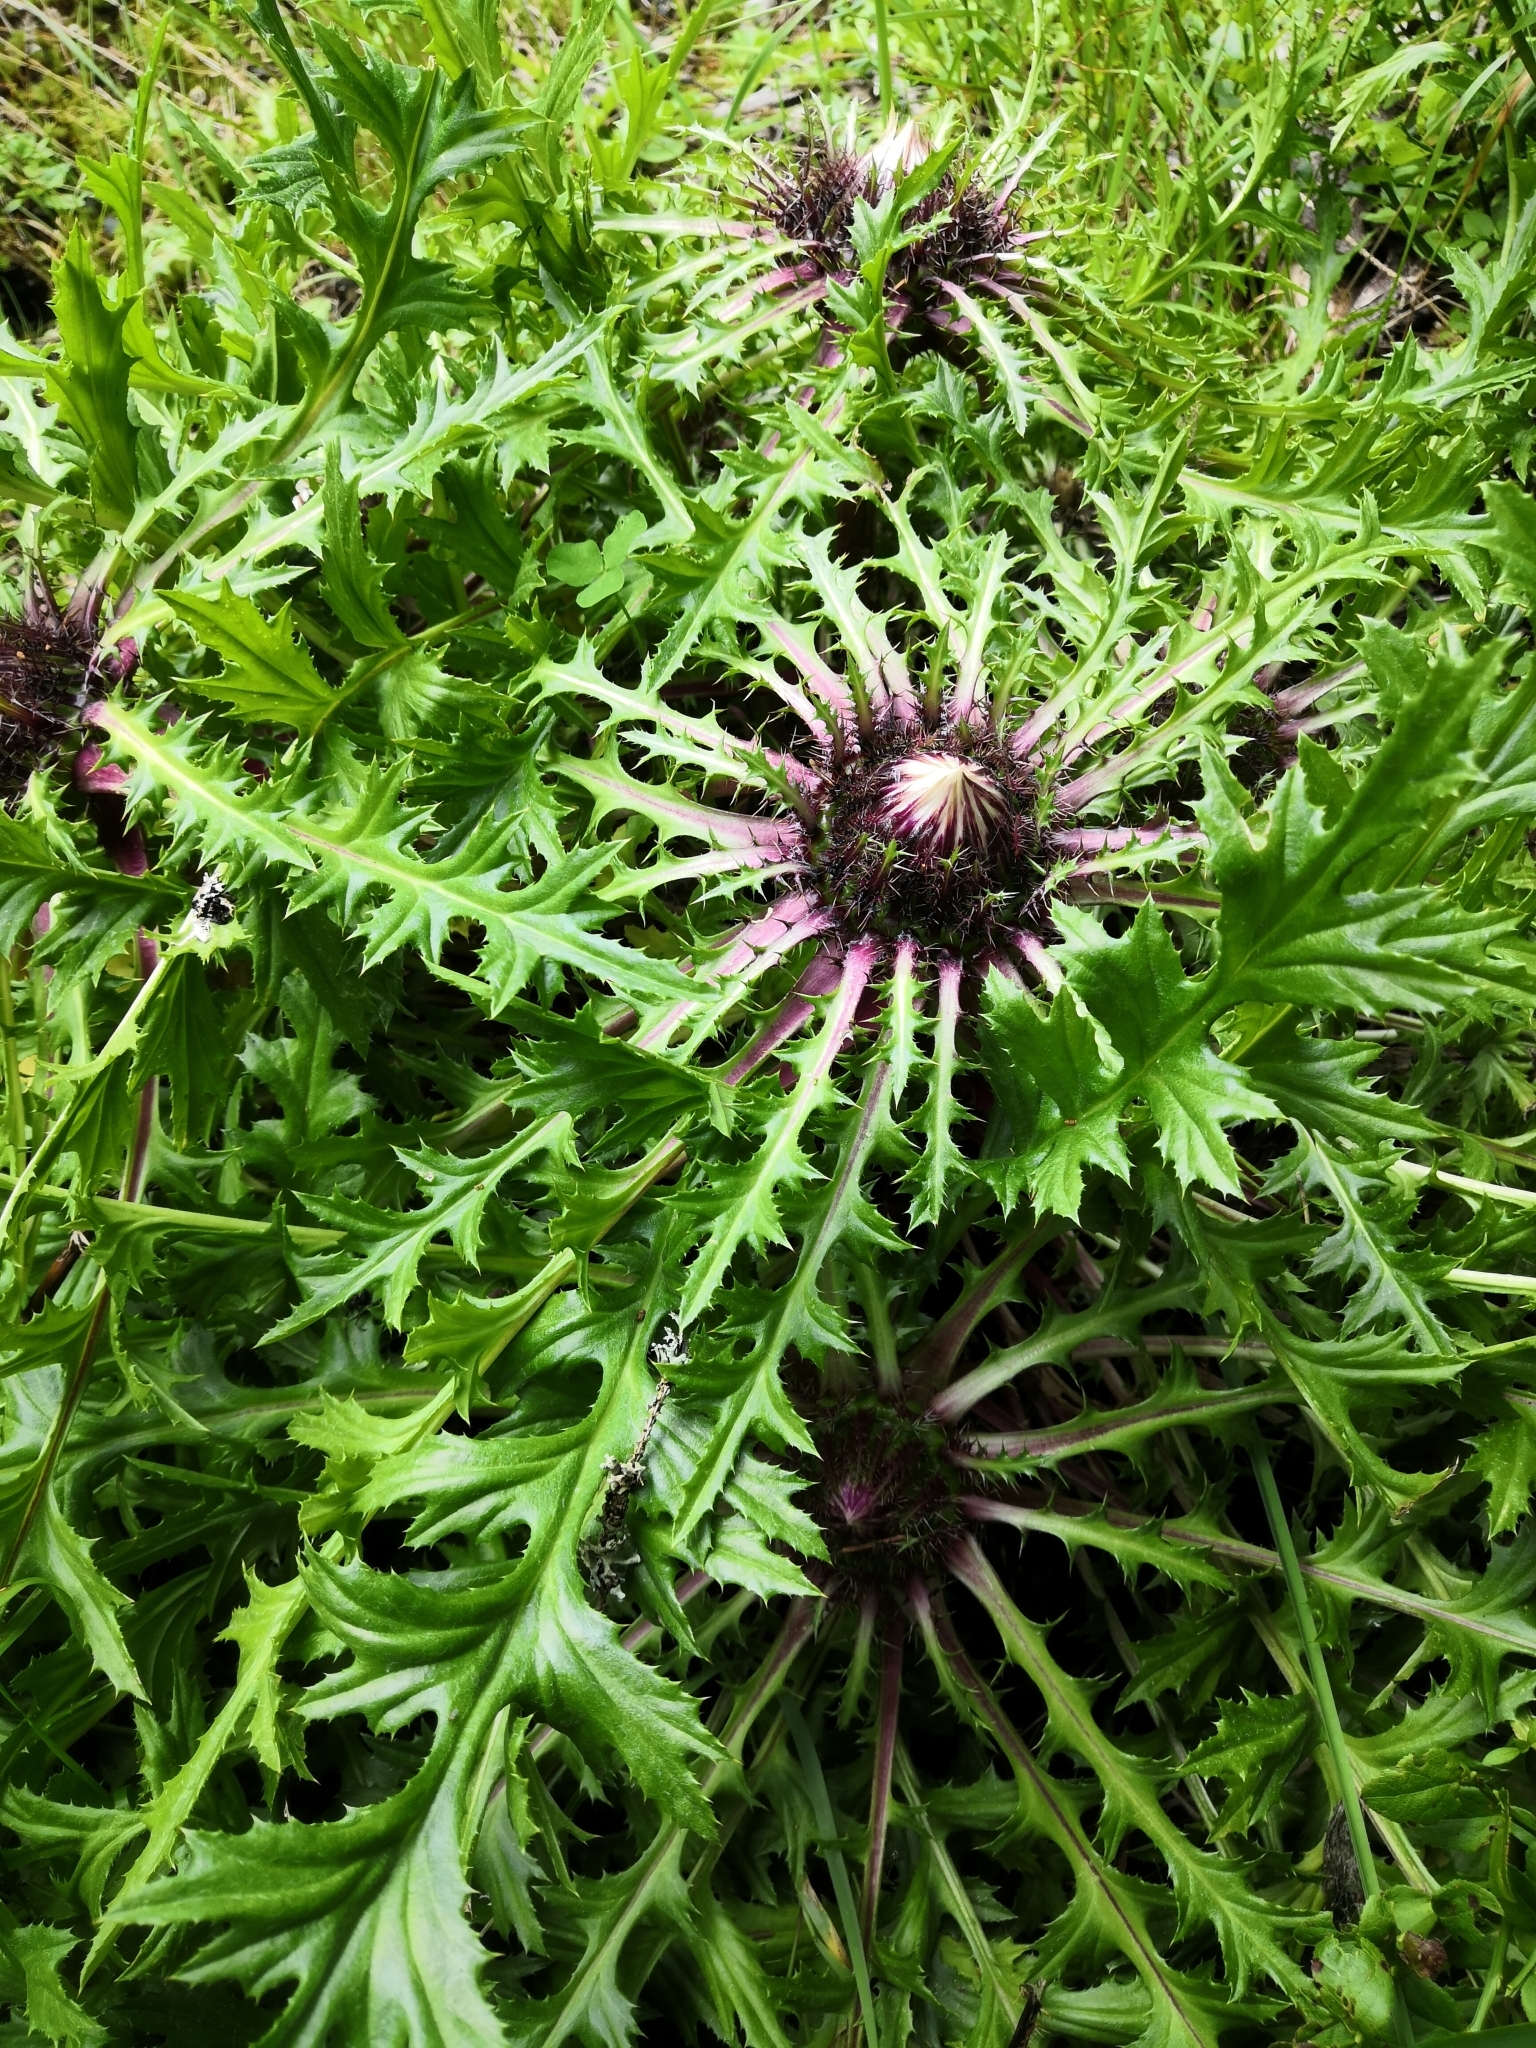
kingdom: Plantae
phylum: Tracheophyta
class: Magnoliopsida
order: Asterales
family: Asteraceae
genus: Carlina
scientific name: Carlina acaulis
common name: Stemless carline thistle
